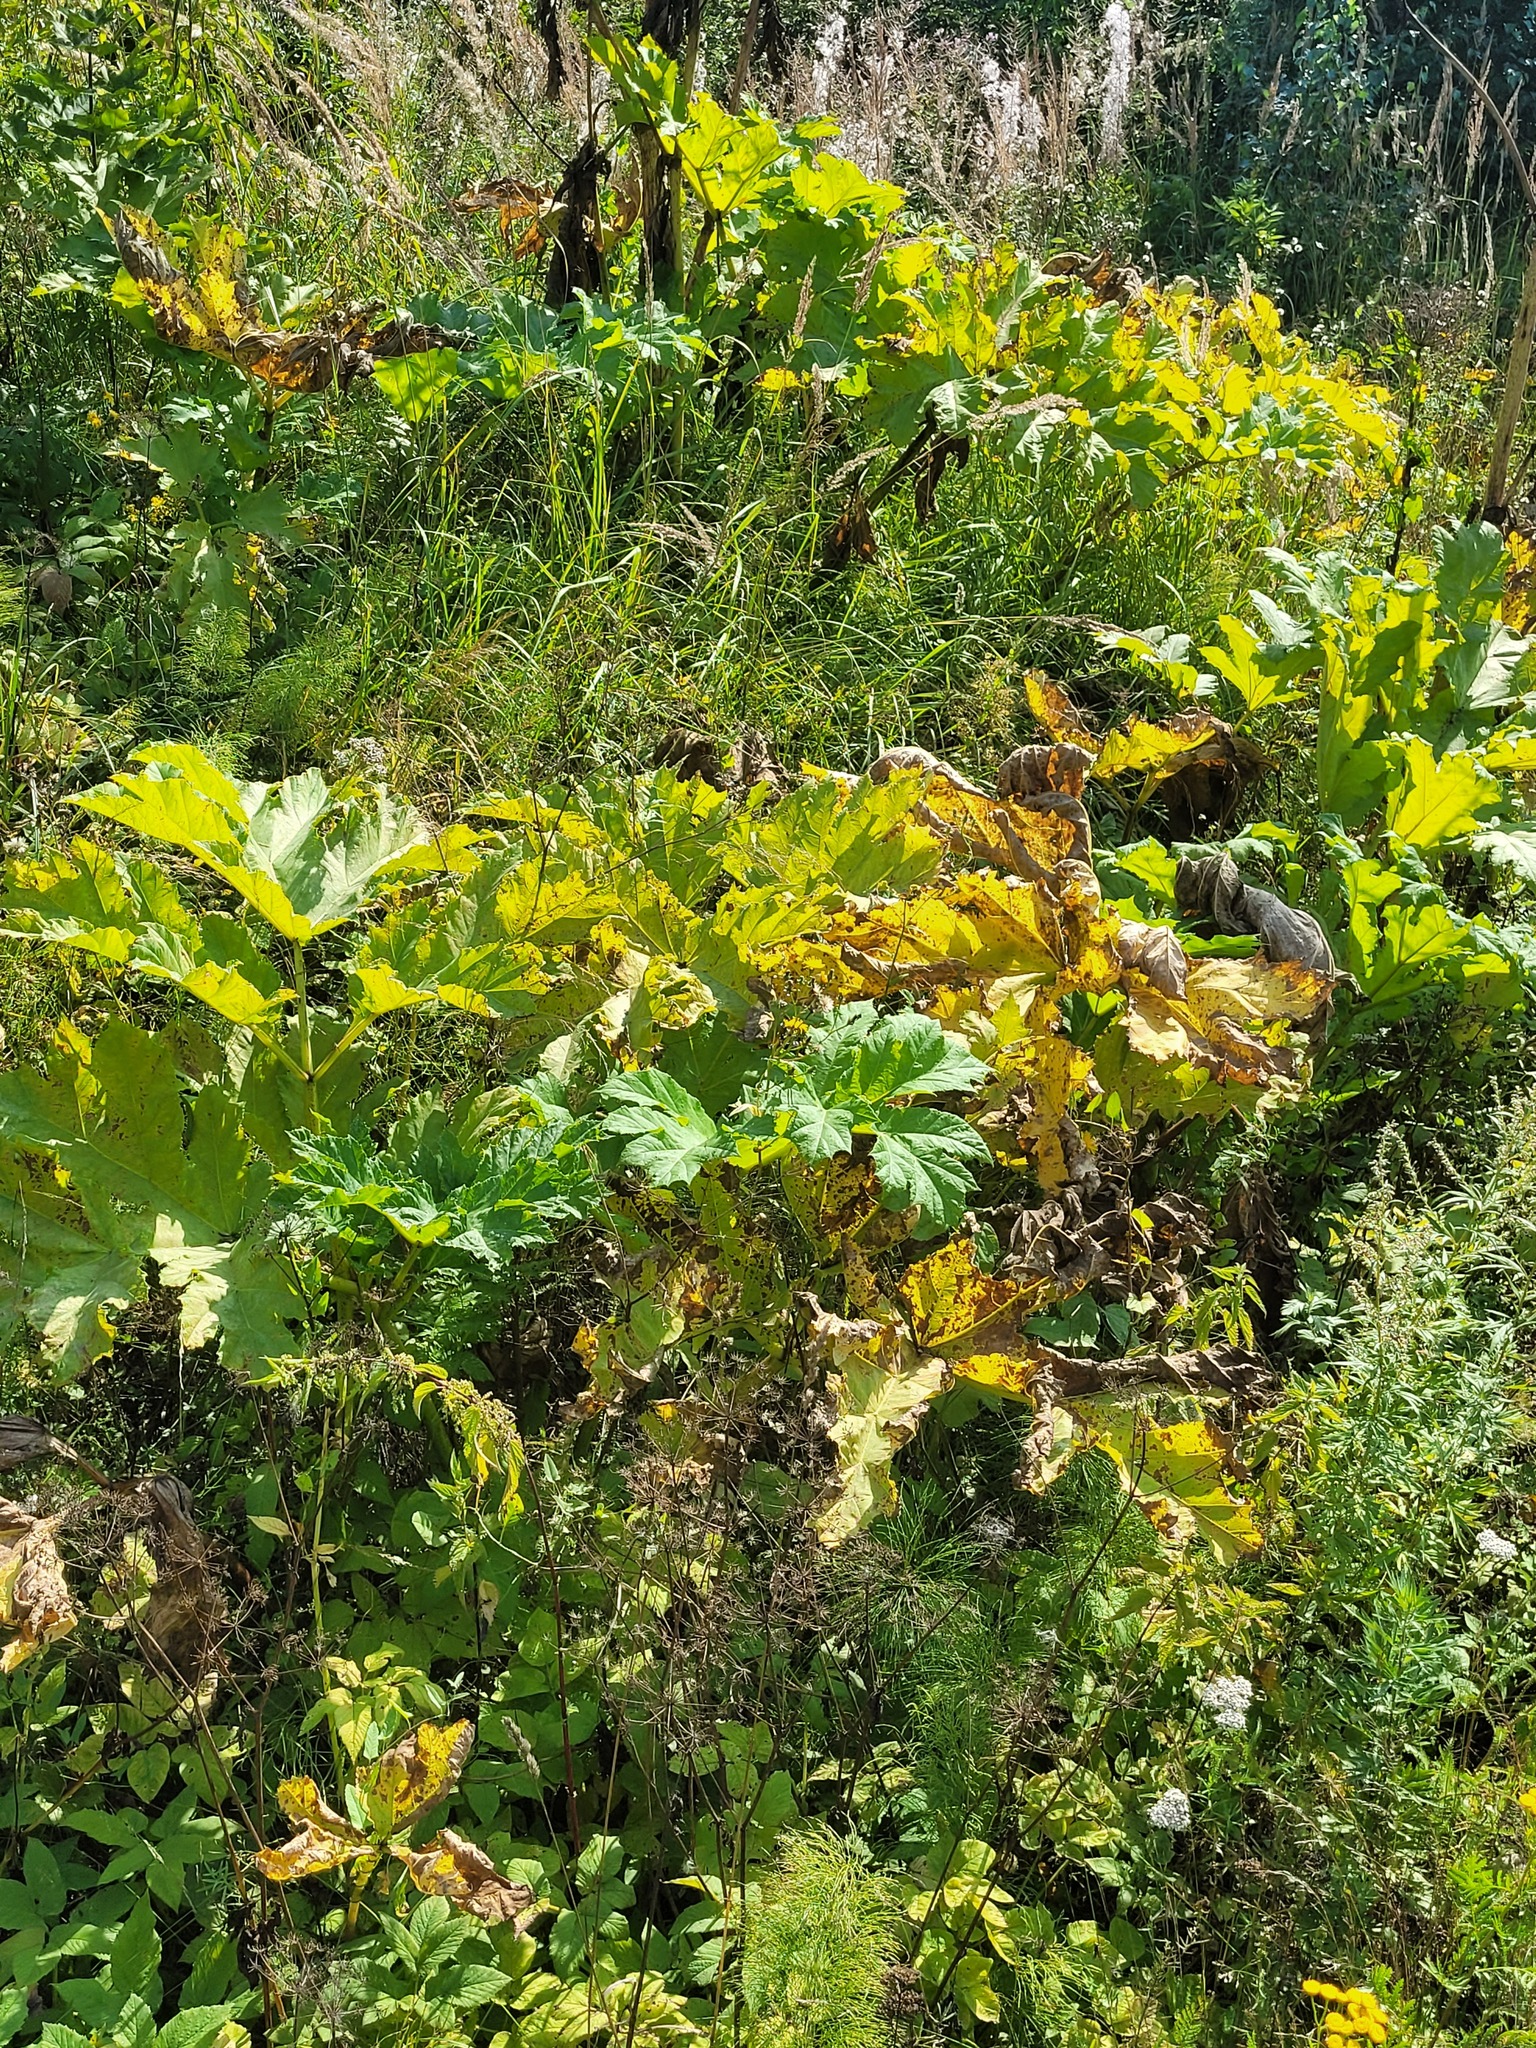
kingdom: Plantae
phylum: Tracheophyta
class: Magnoliopsida
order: Apiales
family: Apiaceae
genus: Heracleum
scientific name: Heracleum sosnowskyi
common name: Sosnowsky's hogweed
